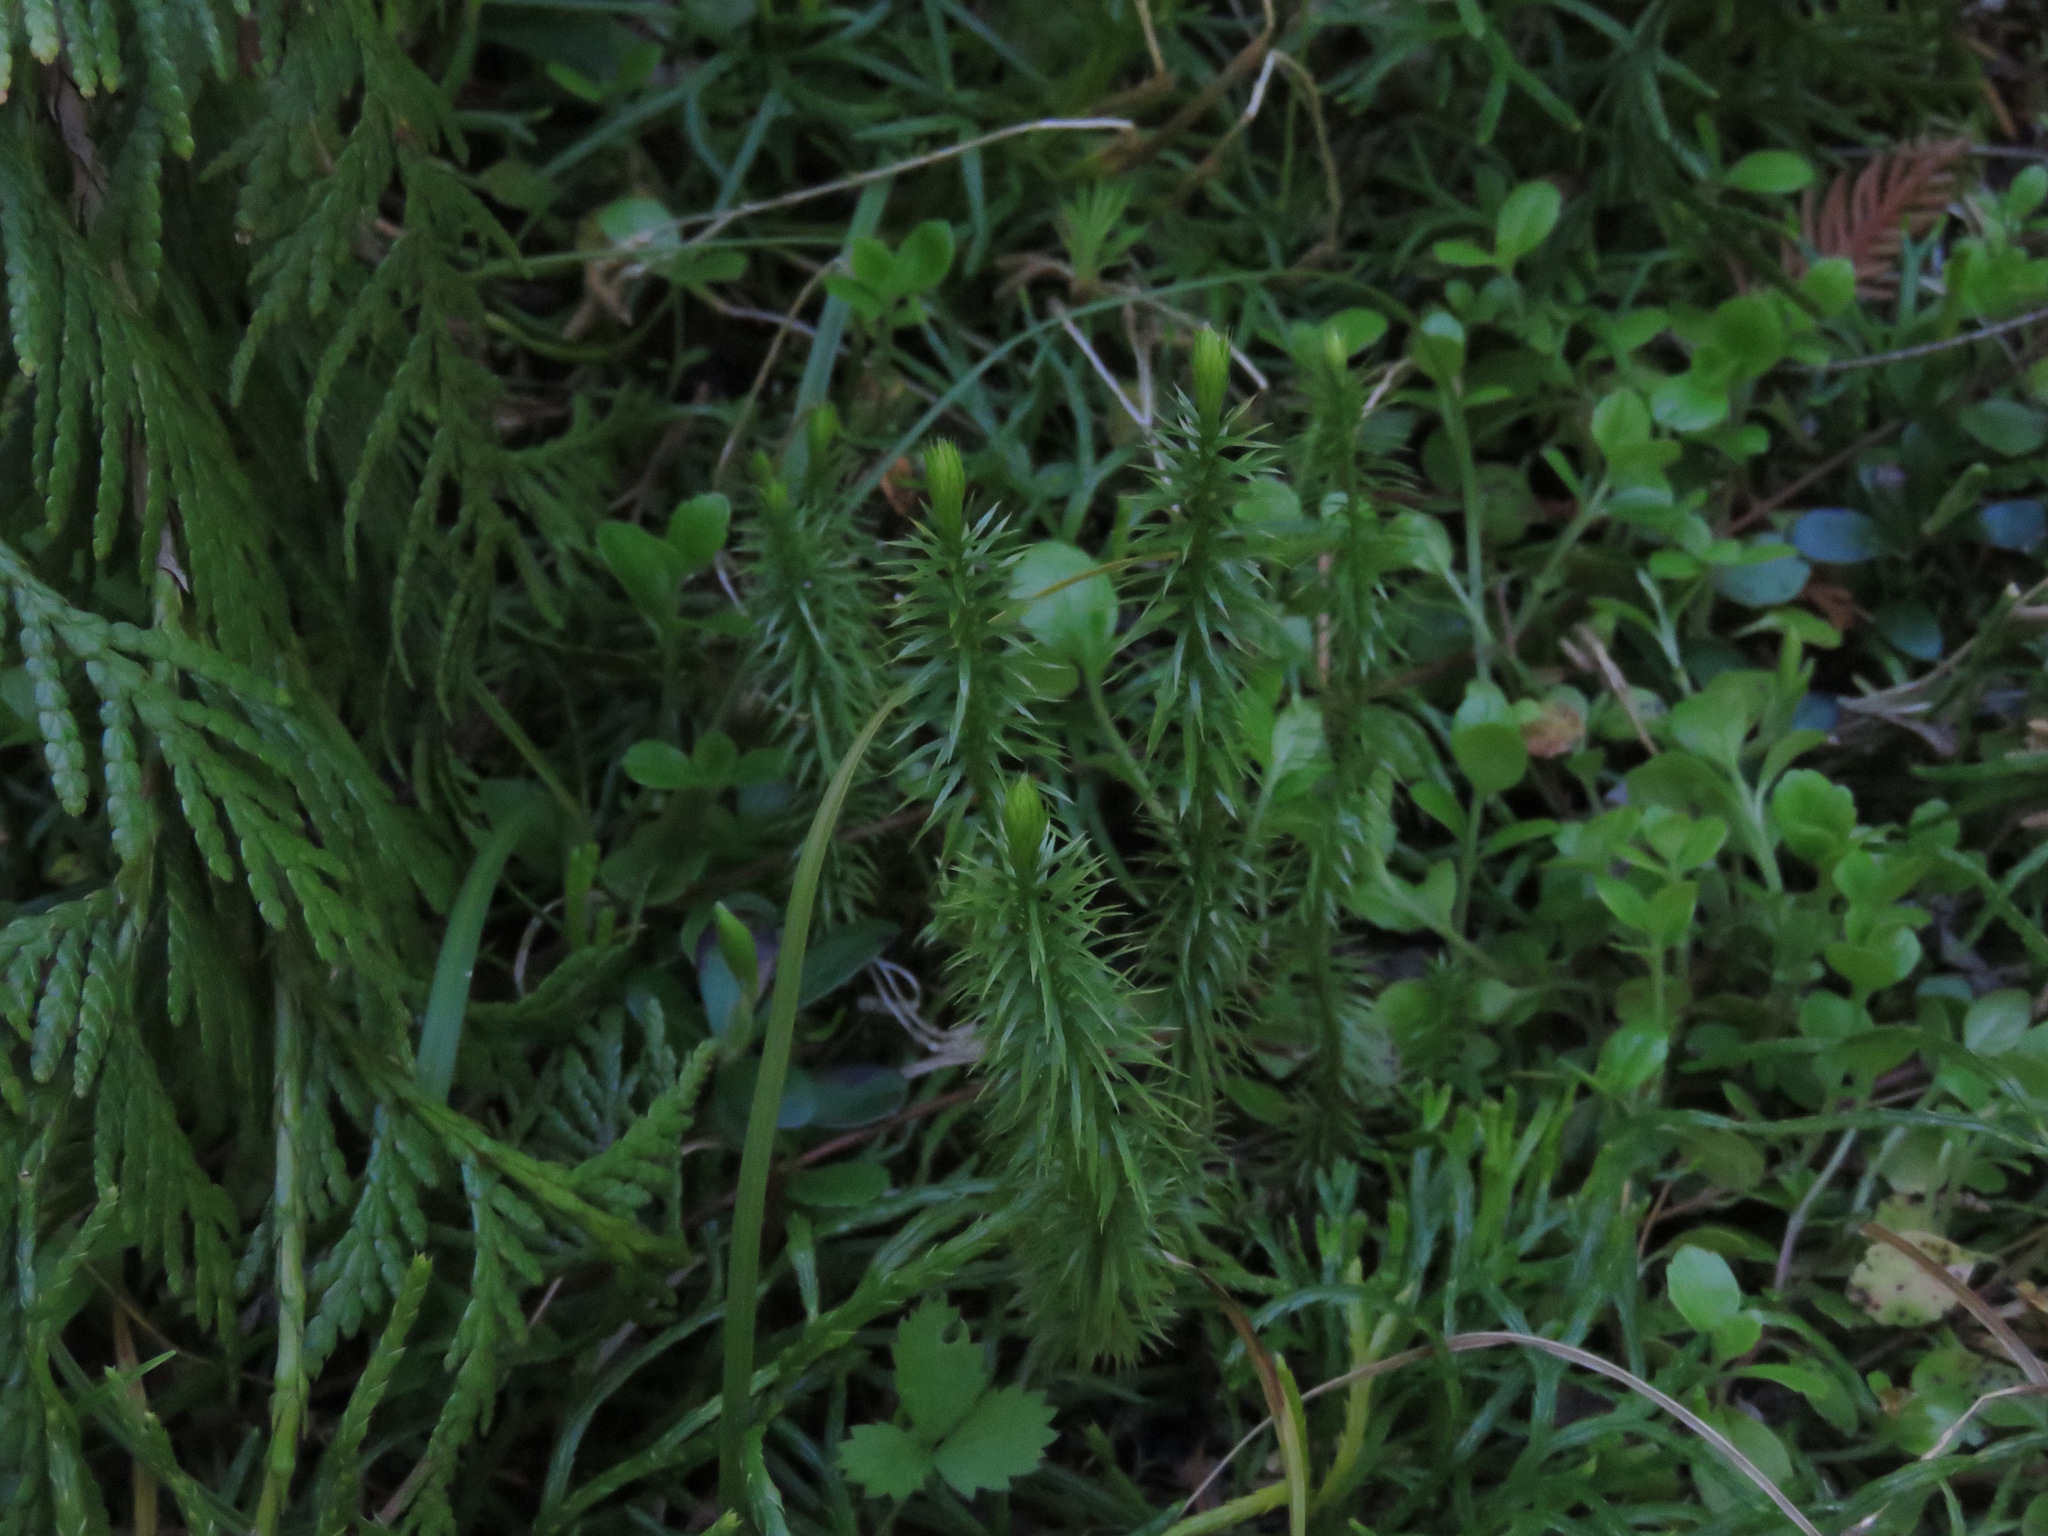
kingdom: Plantae
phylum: Tracheophyta
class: Lycopodiopsida
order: Lycopodiales
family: Lycopodiaceae
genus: Spinulum
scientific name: Spinulum annotinum
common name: Interrupted club-moss
